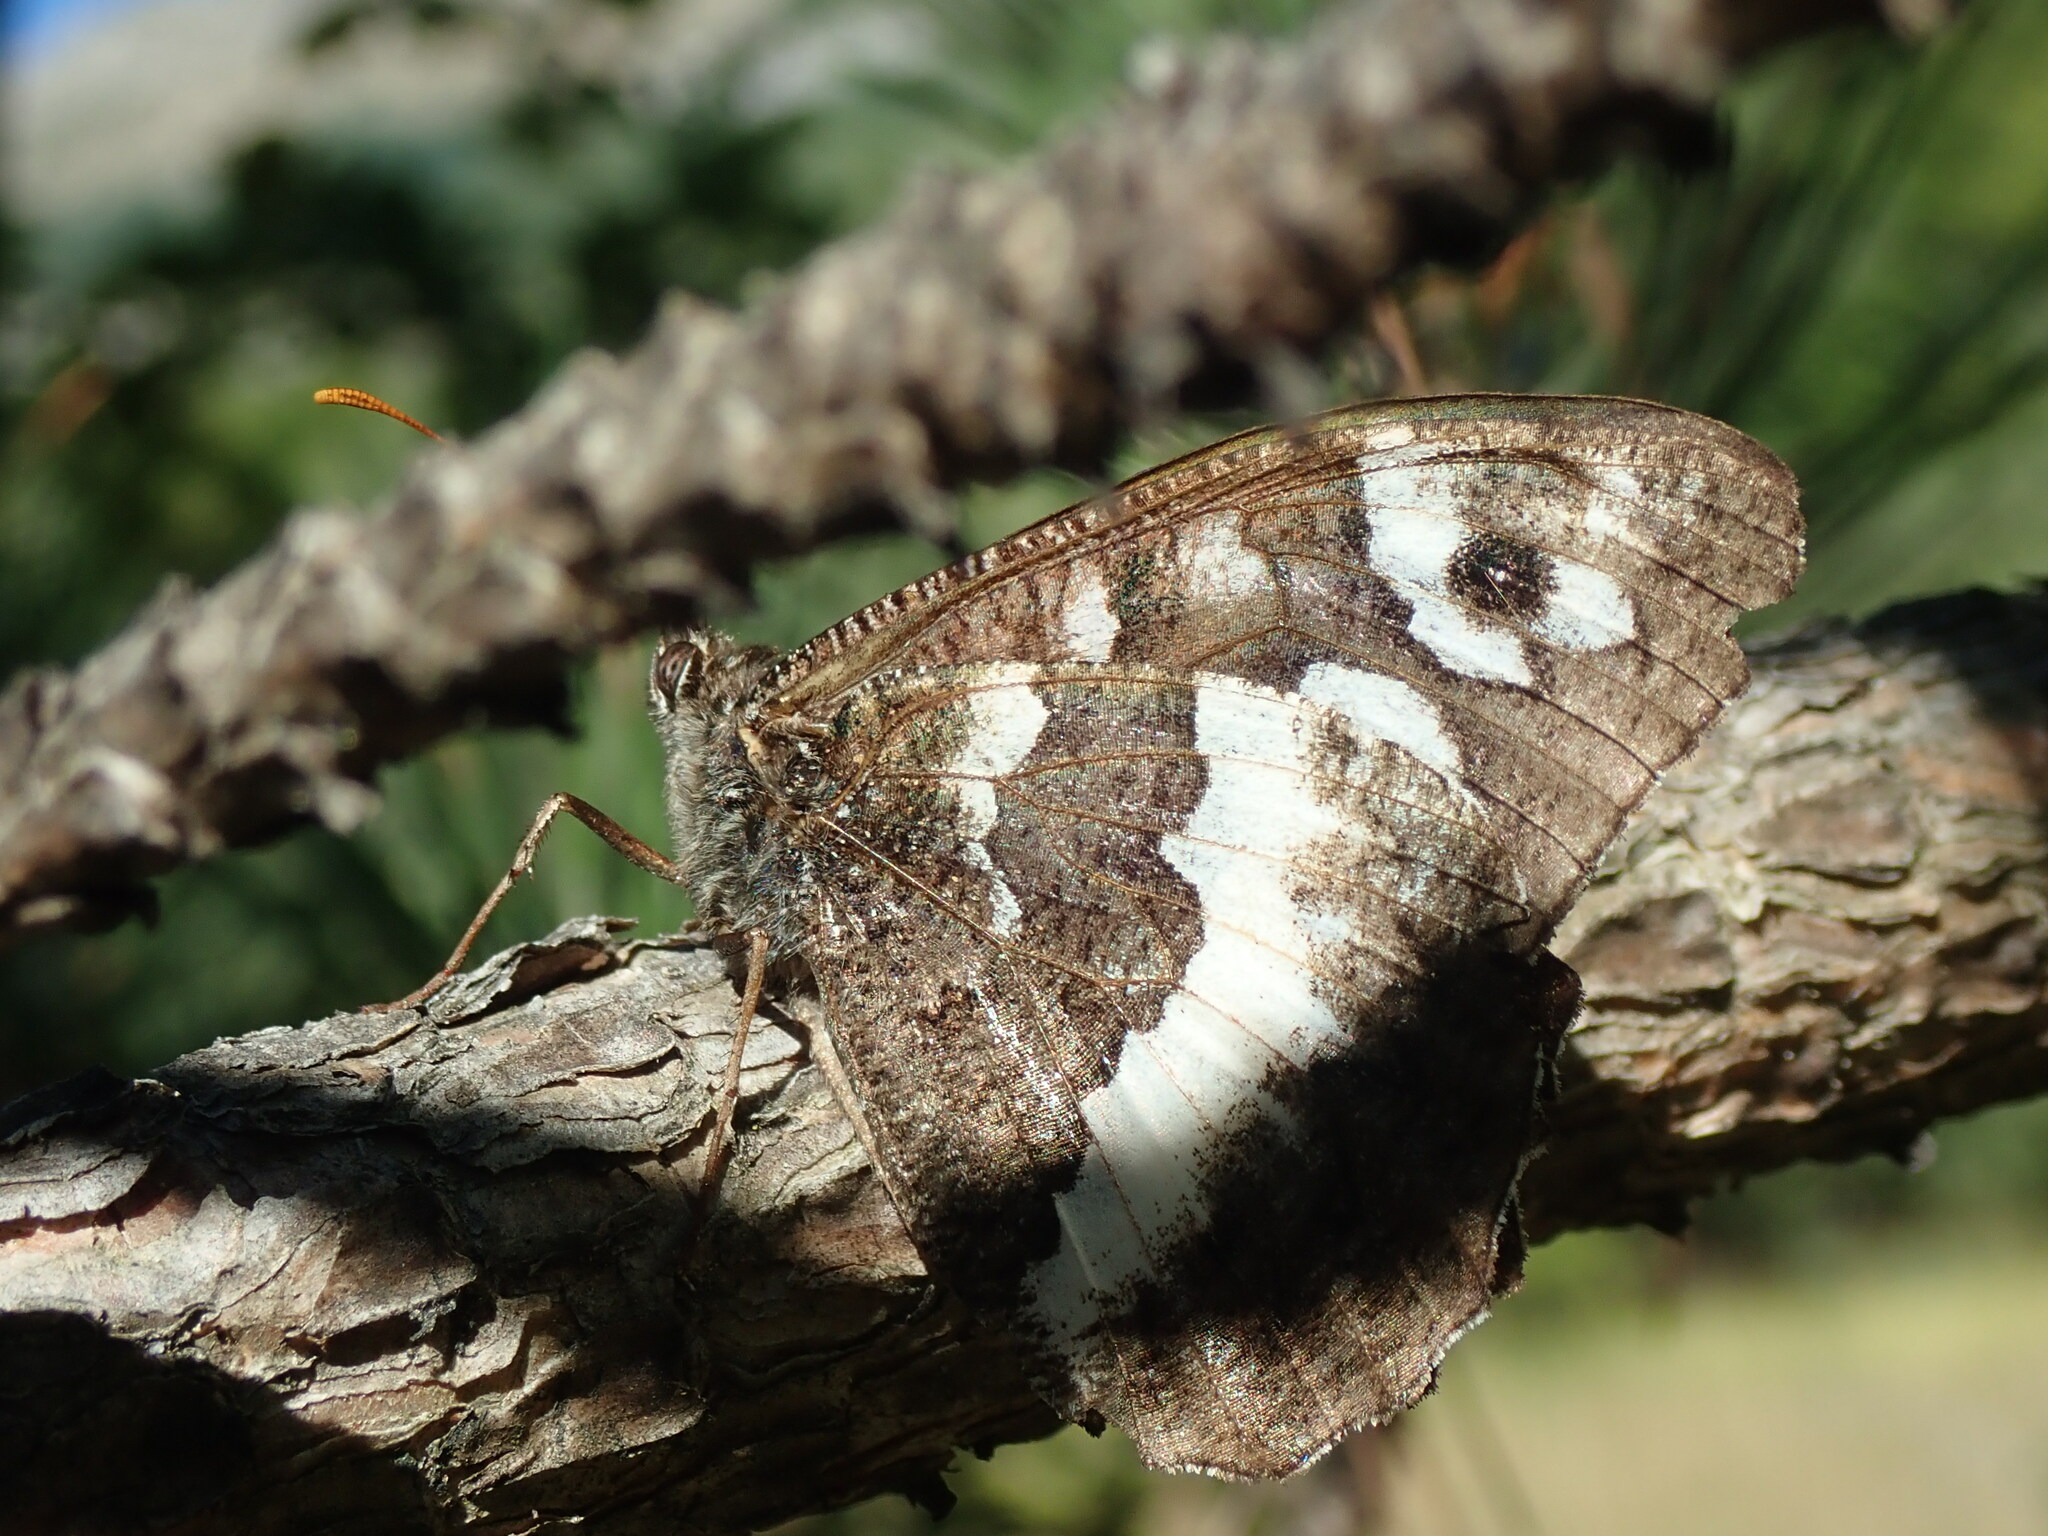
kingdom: Animalia
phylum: Arthropoda
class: Insecta
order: Lepidoptera
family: Lycaenidae
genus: Loweia
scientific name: Loweia tityrus
